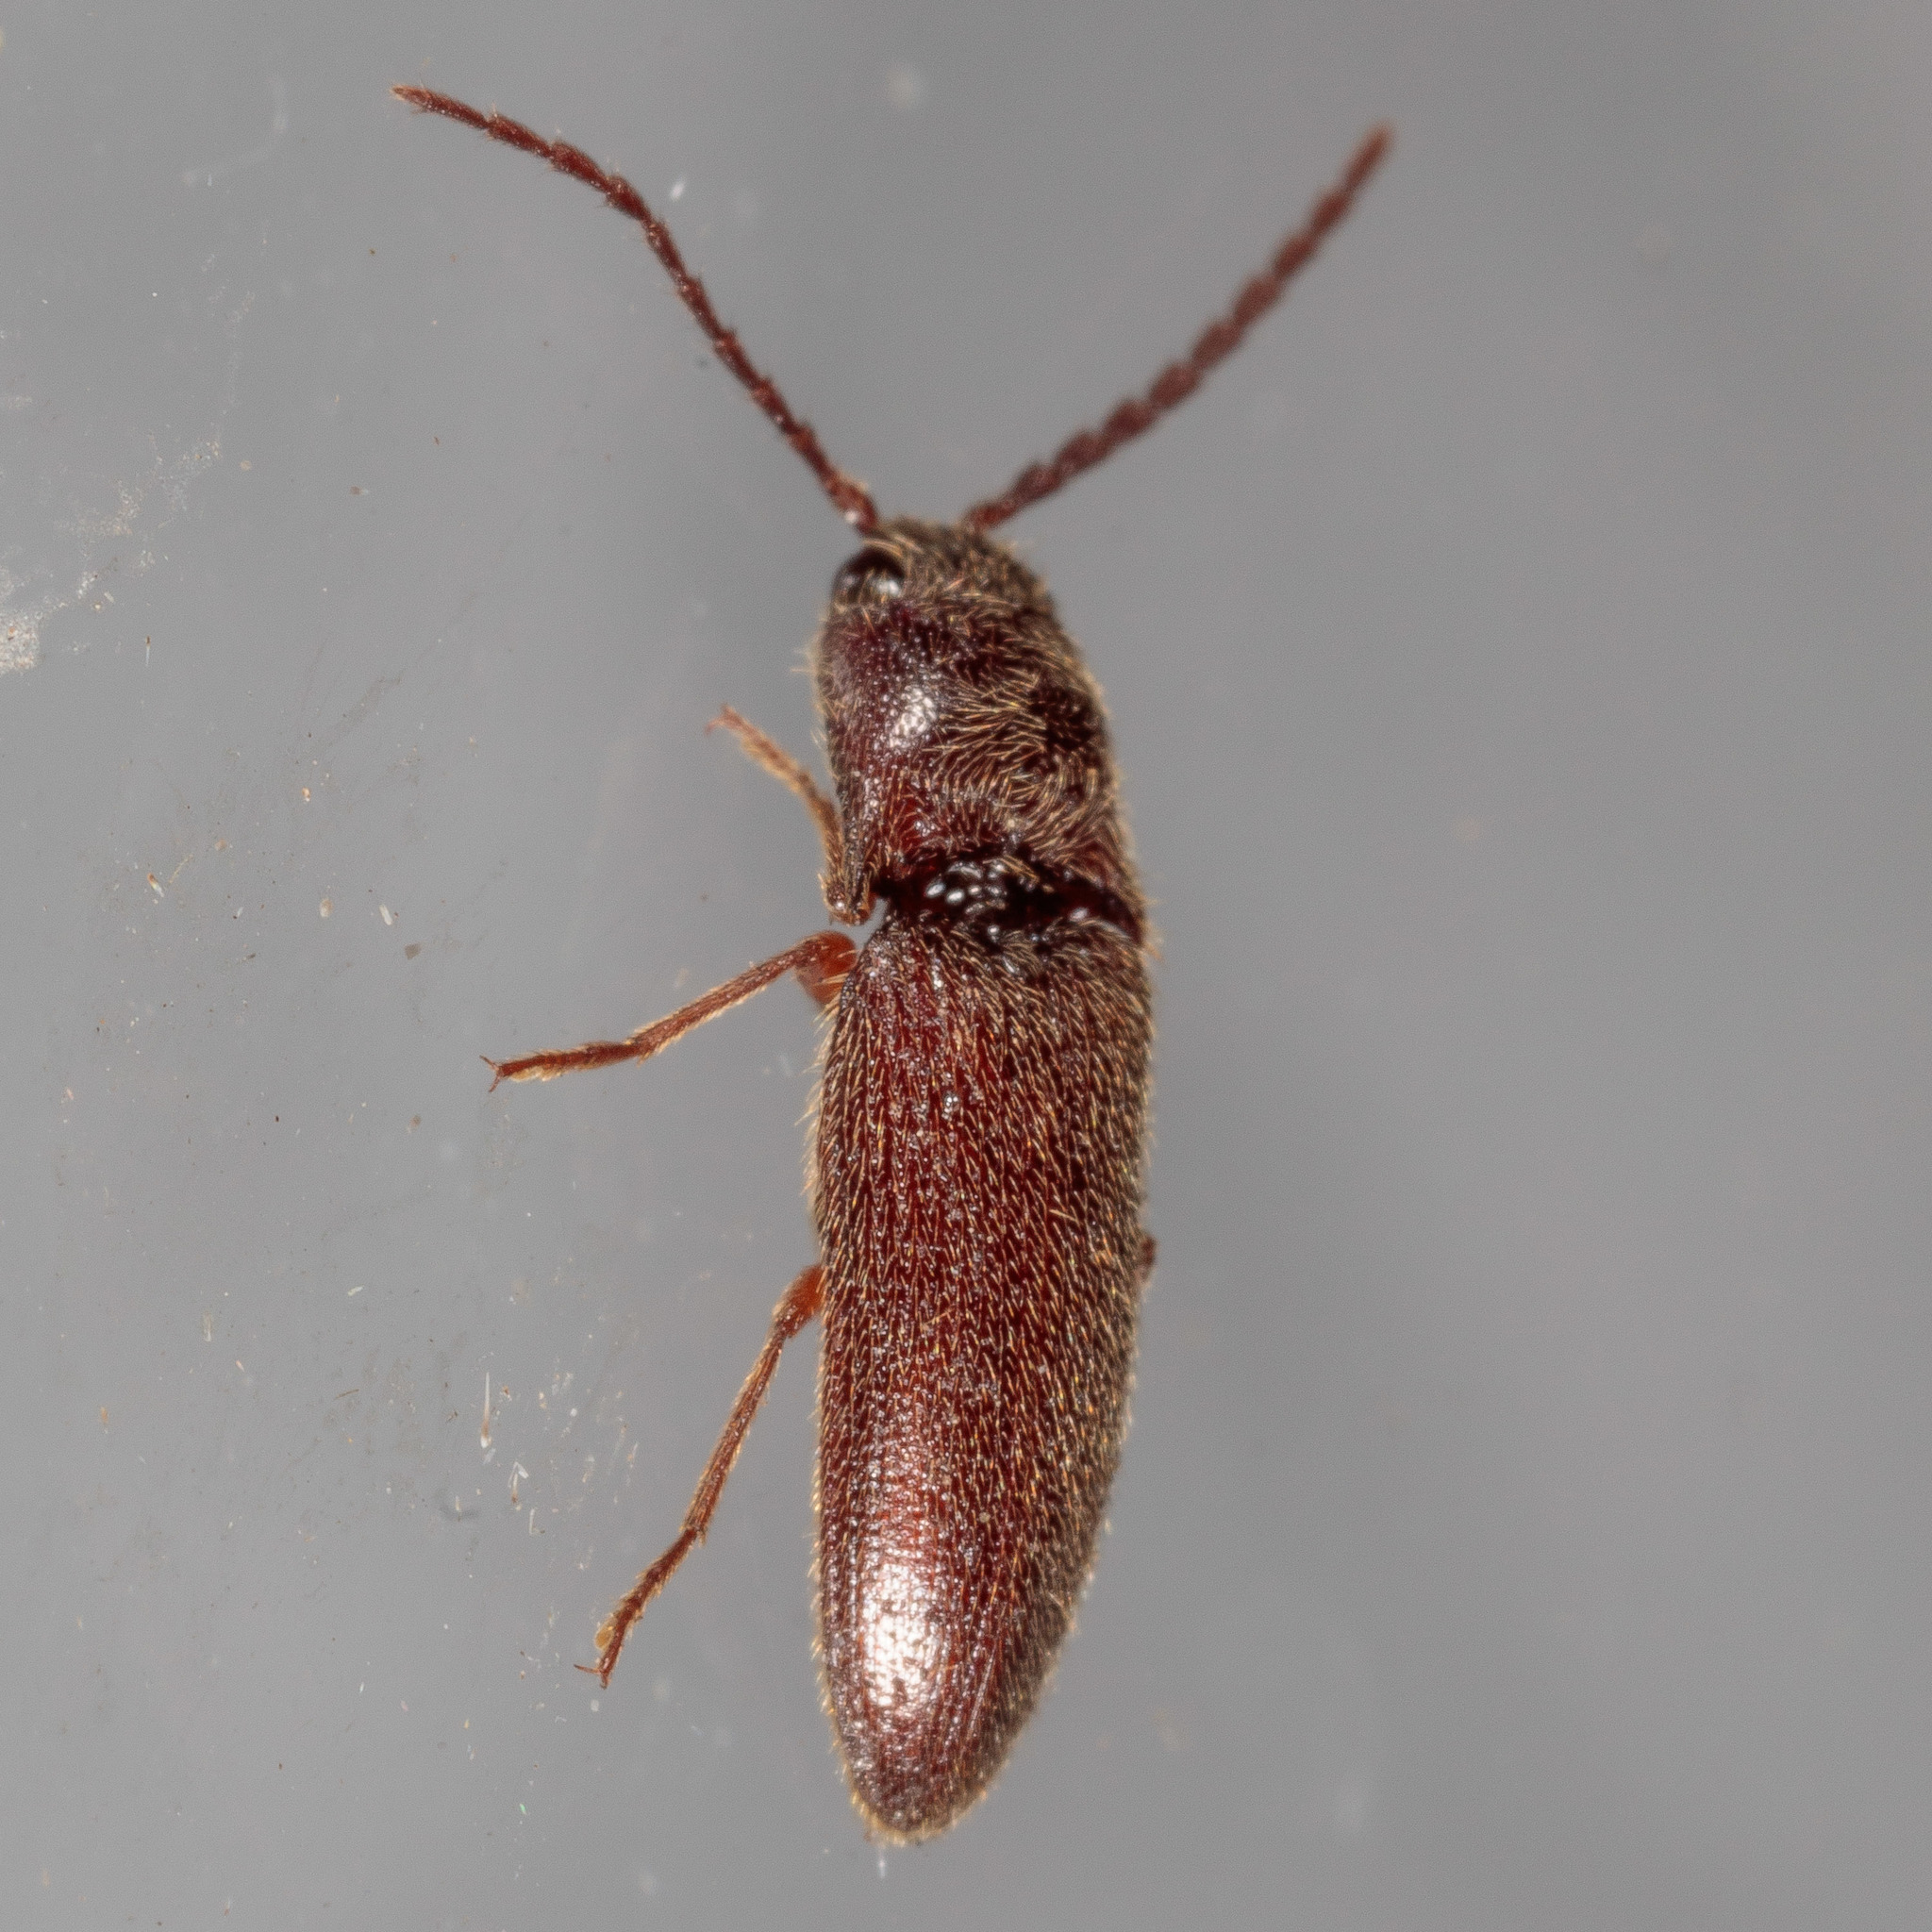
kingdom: Animalia
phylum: Arthropoda
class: Insecta
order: Coleoptera
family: Elateridae
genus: Dipropus
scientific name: Dipropus
